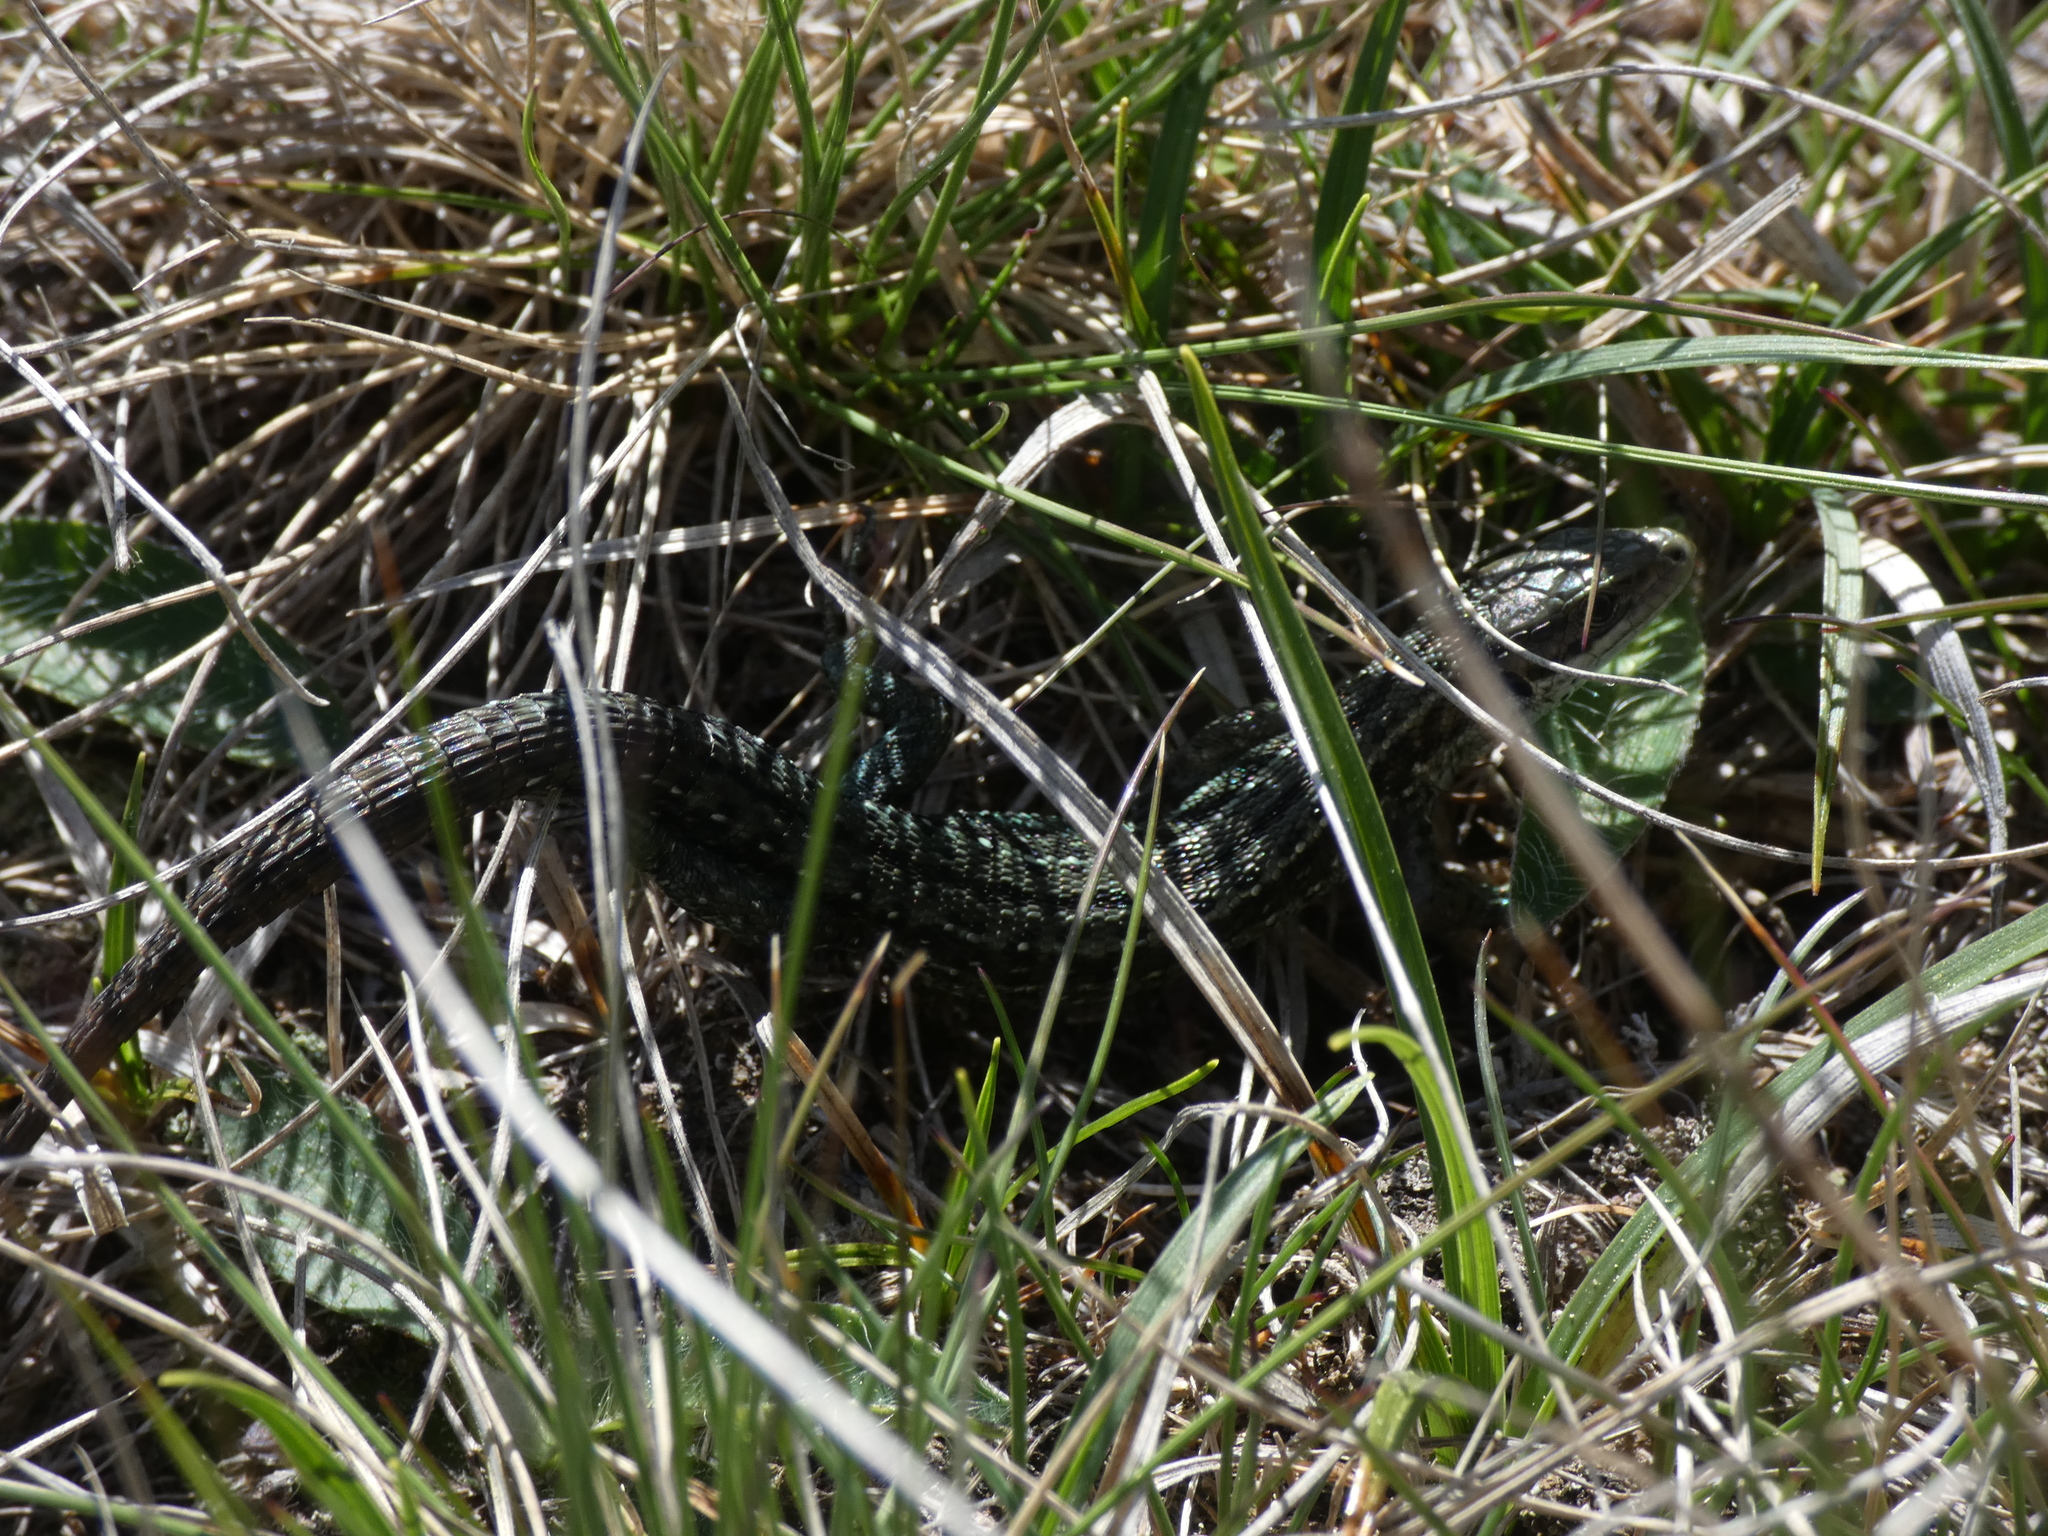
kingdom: Animalia
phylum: Chordata
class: Squamata
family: Lacertidae
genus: Zootoca
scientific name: Zootoca vivipara
